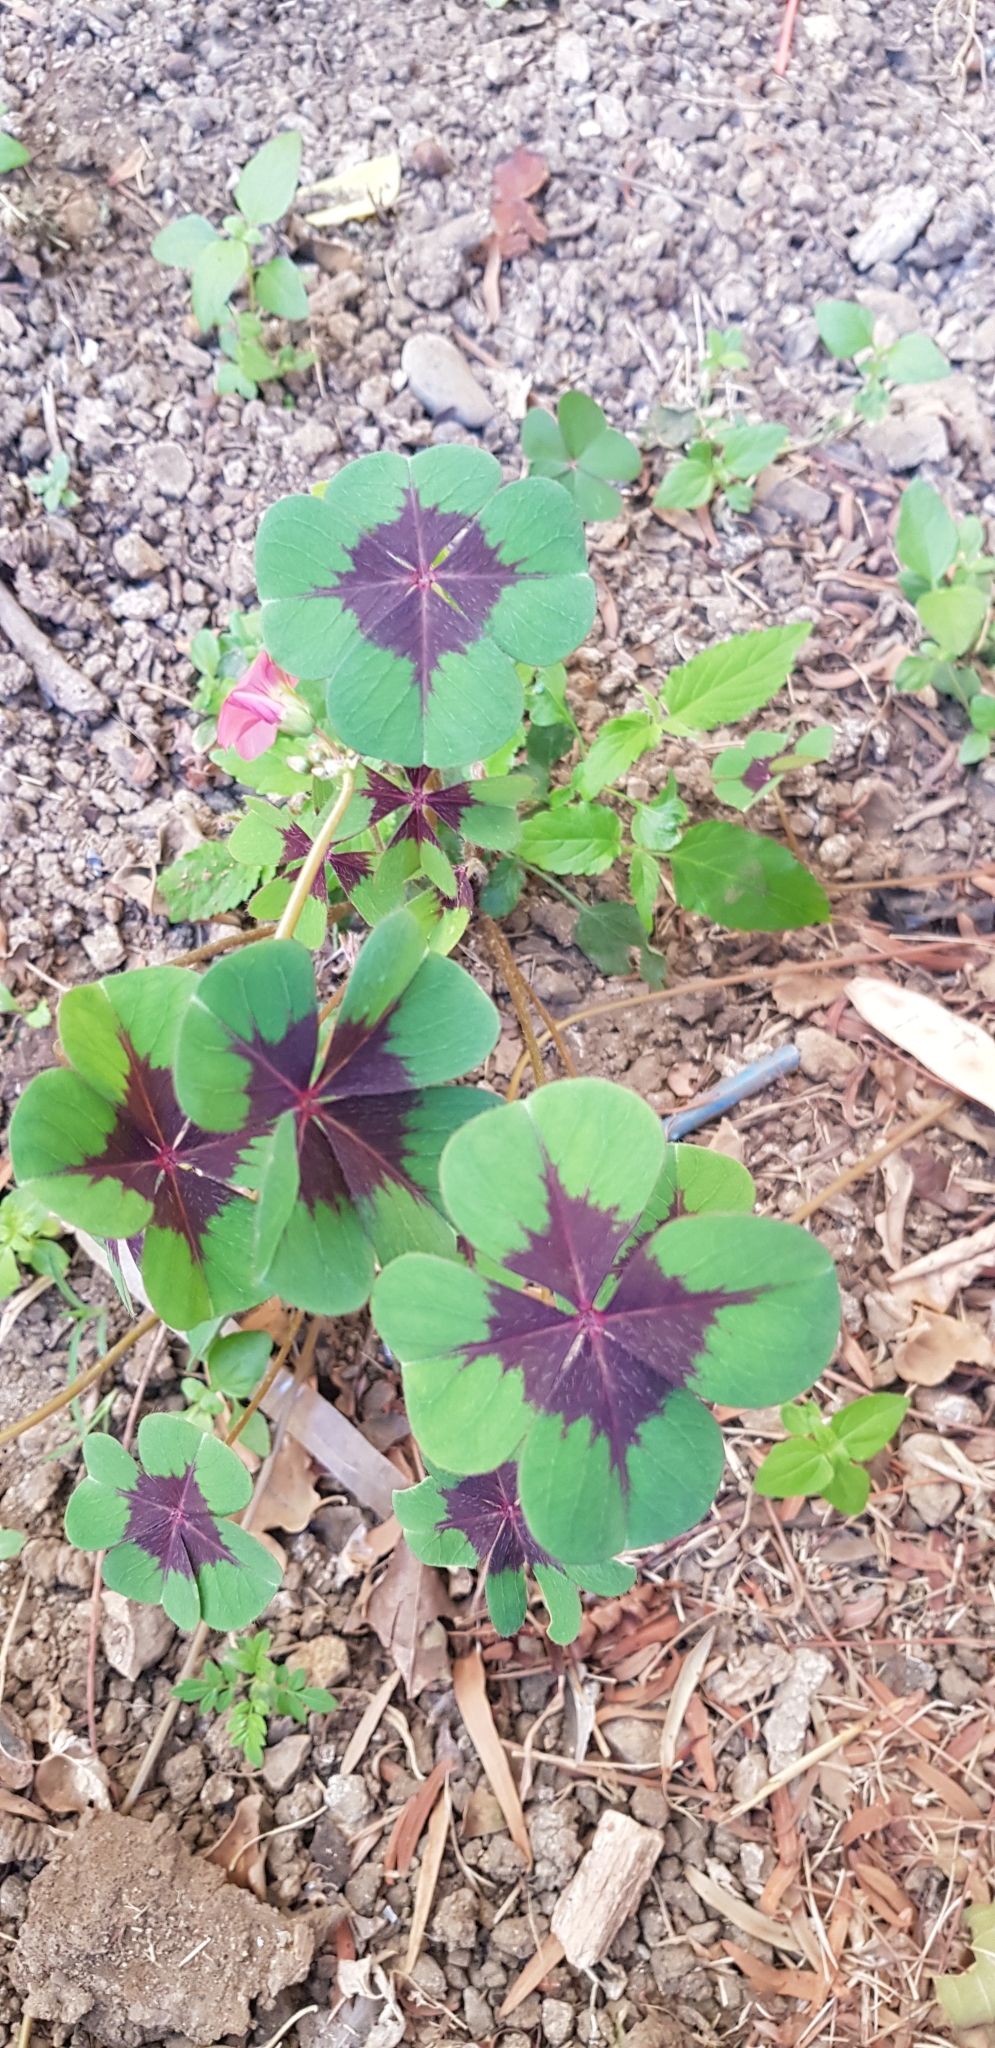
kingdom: Plantae
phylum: Tracheophyta
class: Magnoliopsida
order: Oxalidales
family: Oxalidaceae
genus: Oxalis
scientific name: Oxalis tetraphylla
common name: Four-leaved pink-sorrel
